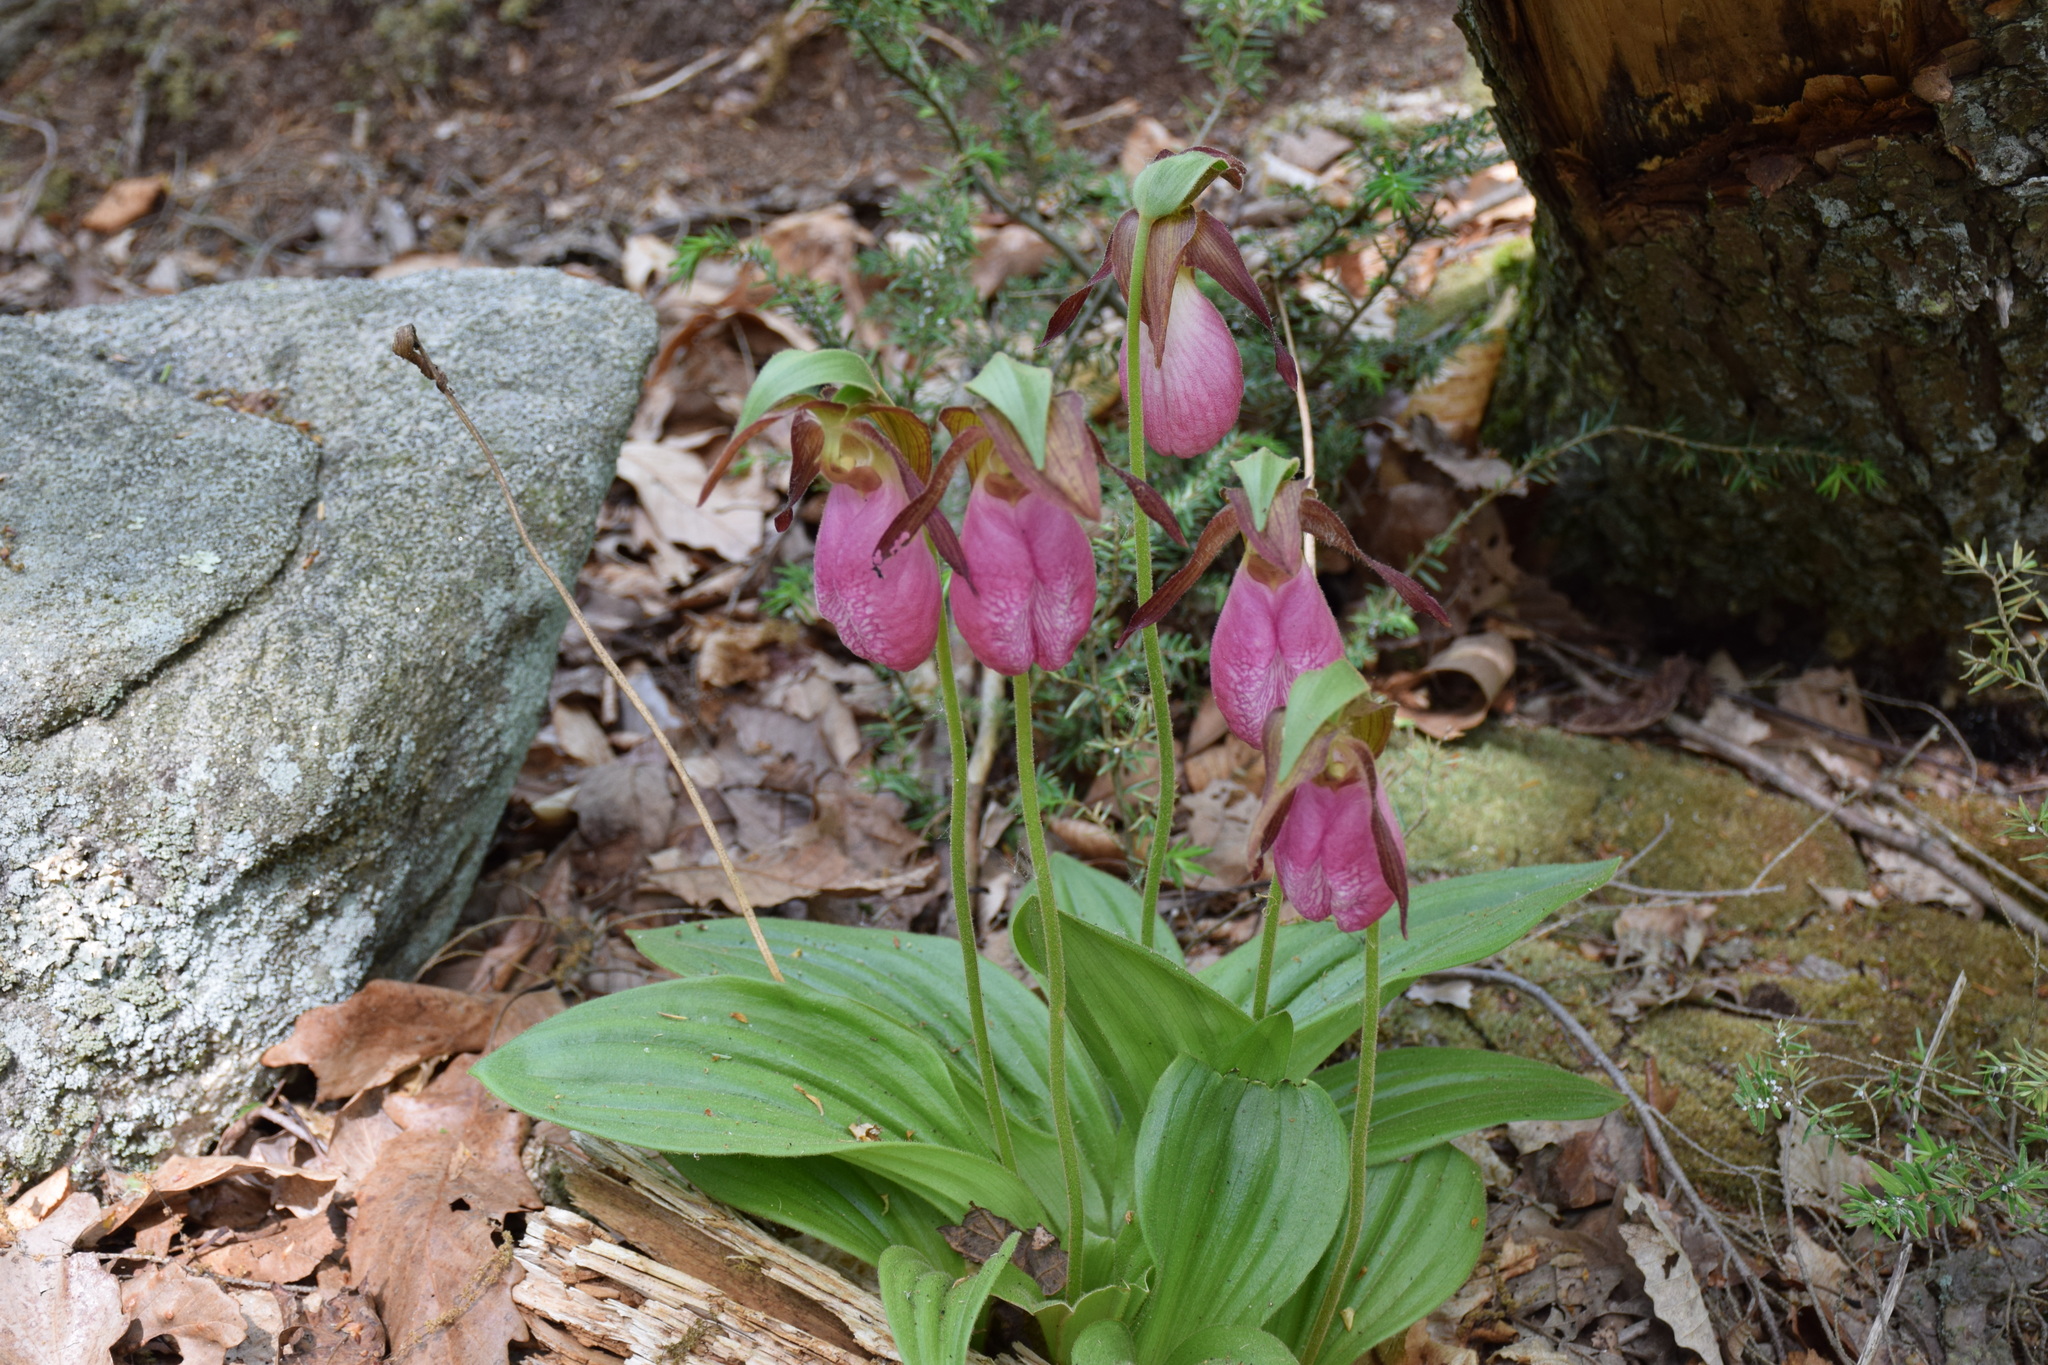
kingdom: Plantae
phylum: Tracheophyta
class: Liliopsida
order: Asparagales
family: Orchidaceae
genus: Cypripedium
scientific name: Cypripedium acaule
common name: Pink lady's-slipper
